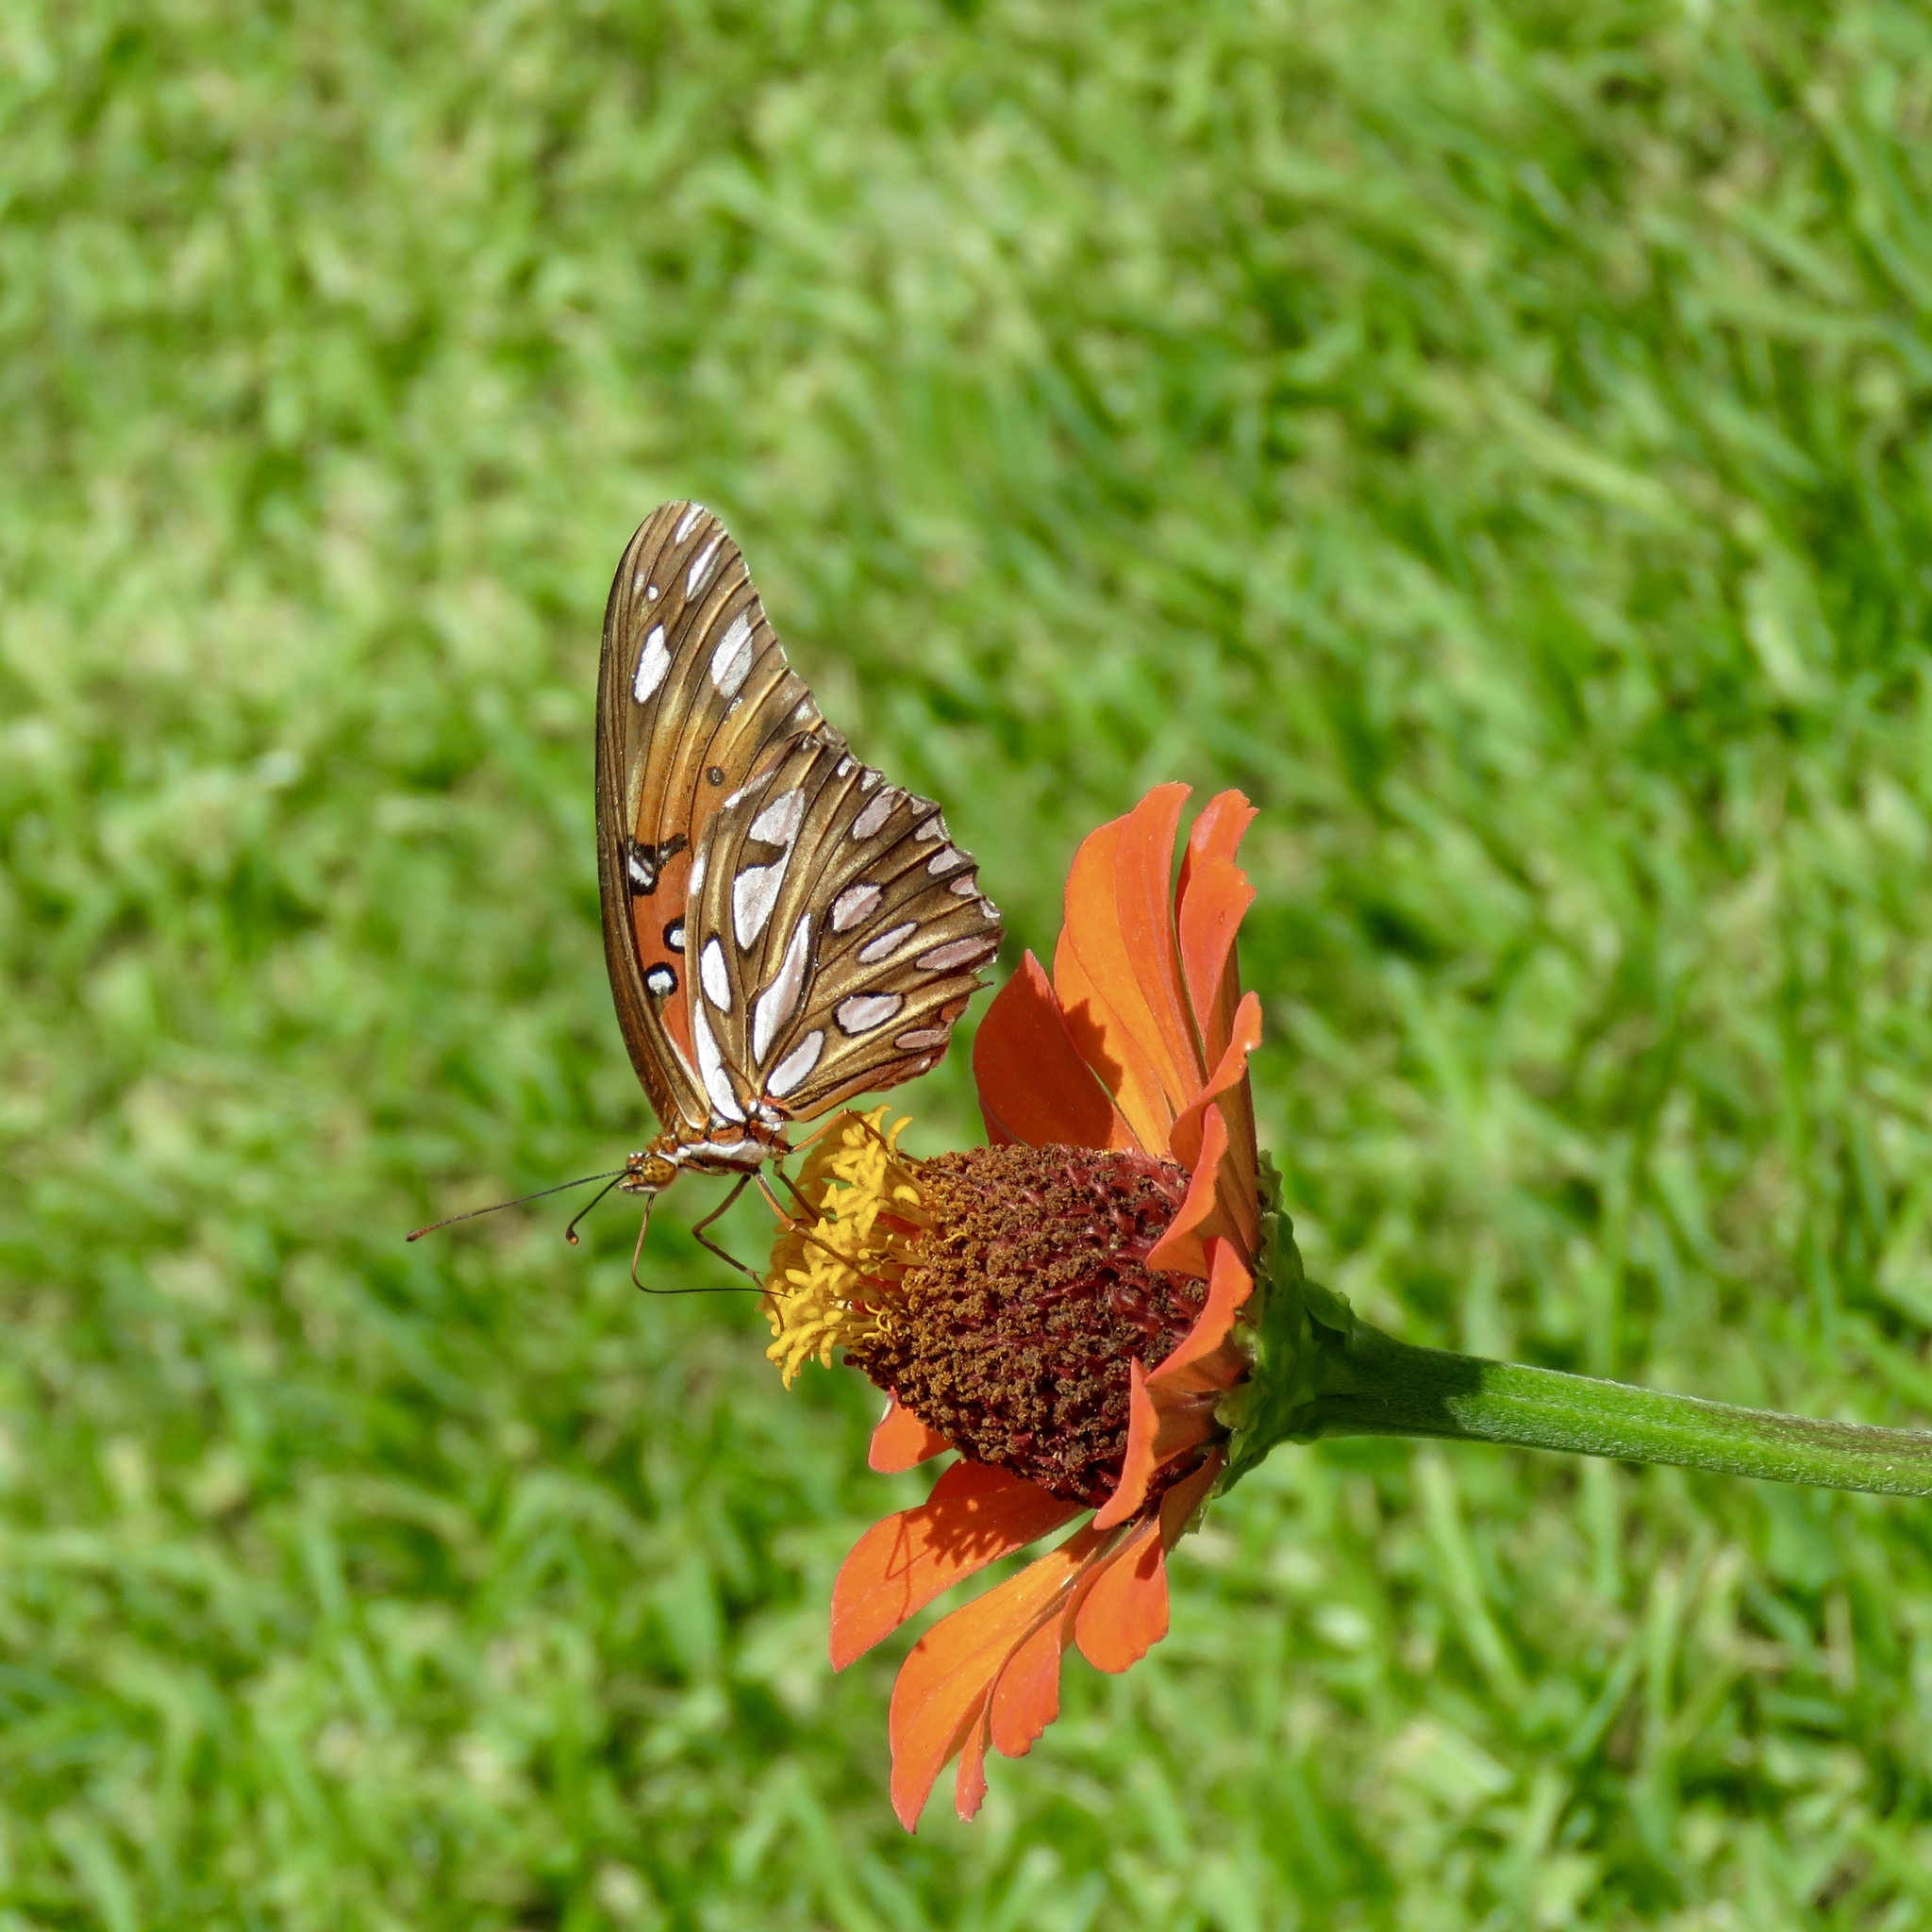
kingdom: Animalia
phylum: Arthropoda
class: Insecta
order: Lepidoptera
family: Nymphalidae
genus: Dione
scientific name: Dione vanillae
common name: Gulf fritillary
